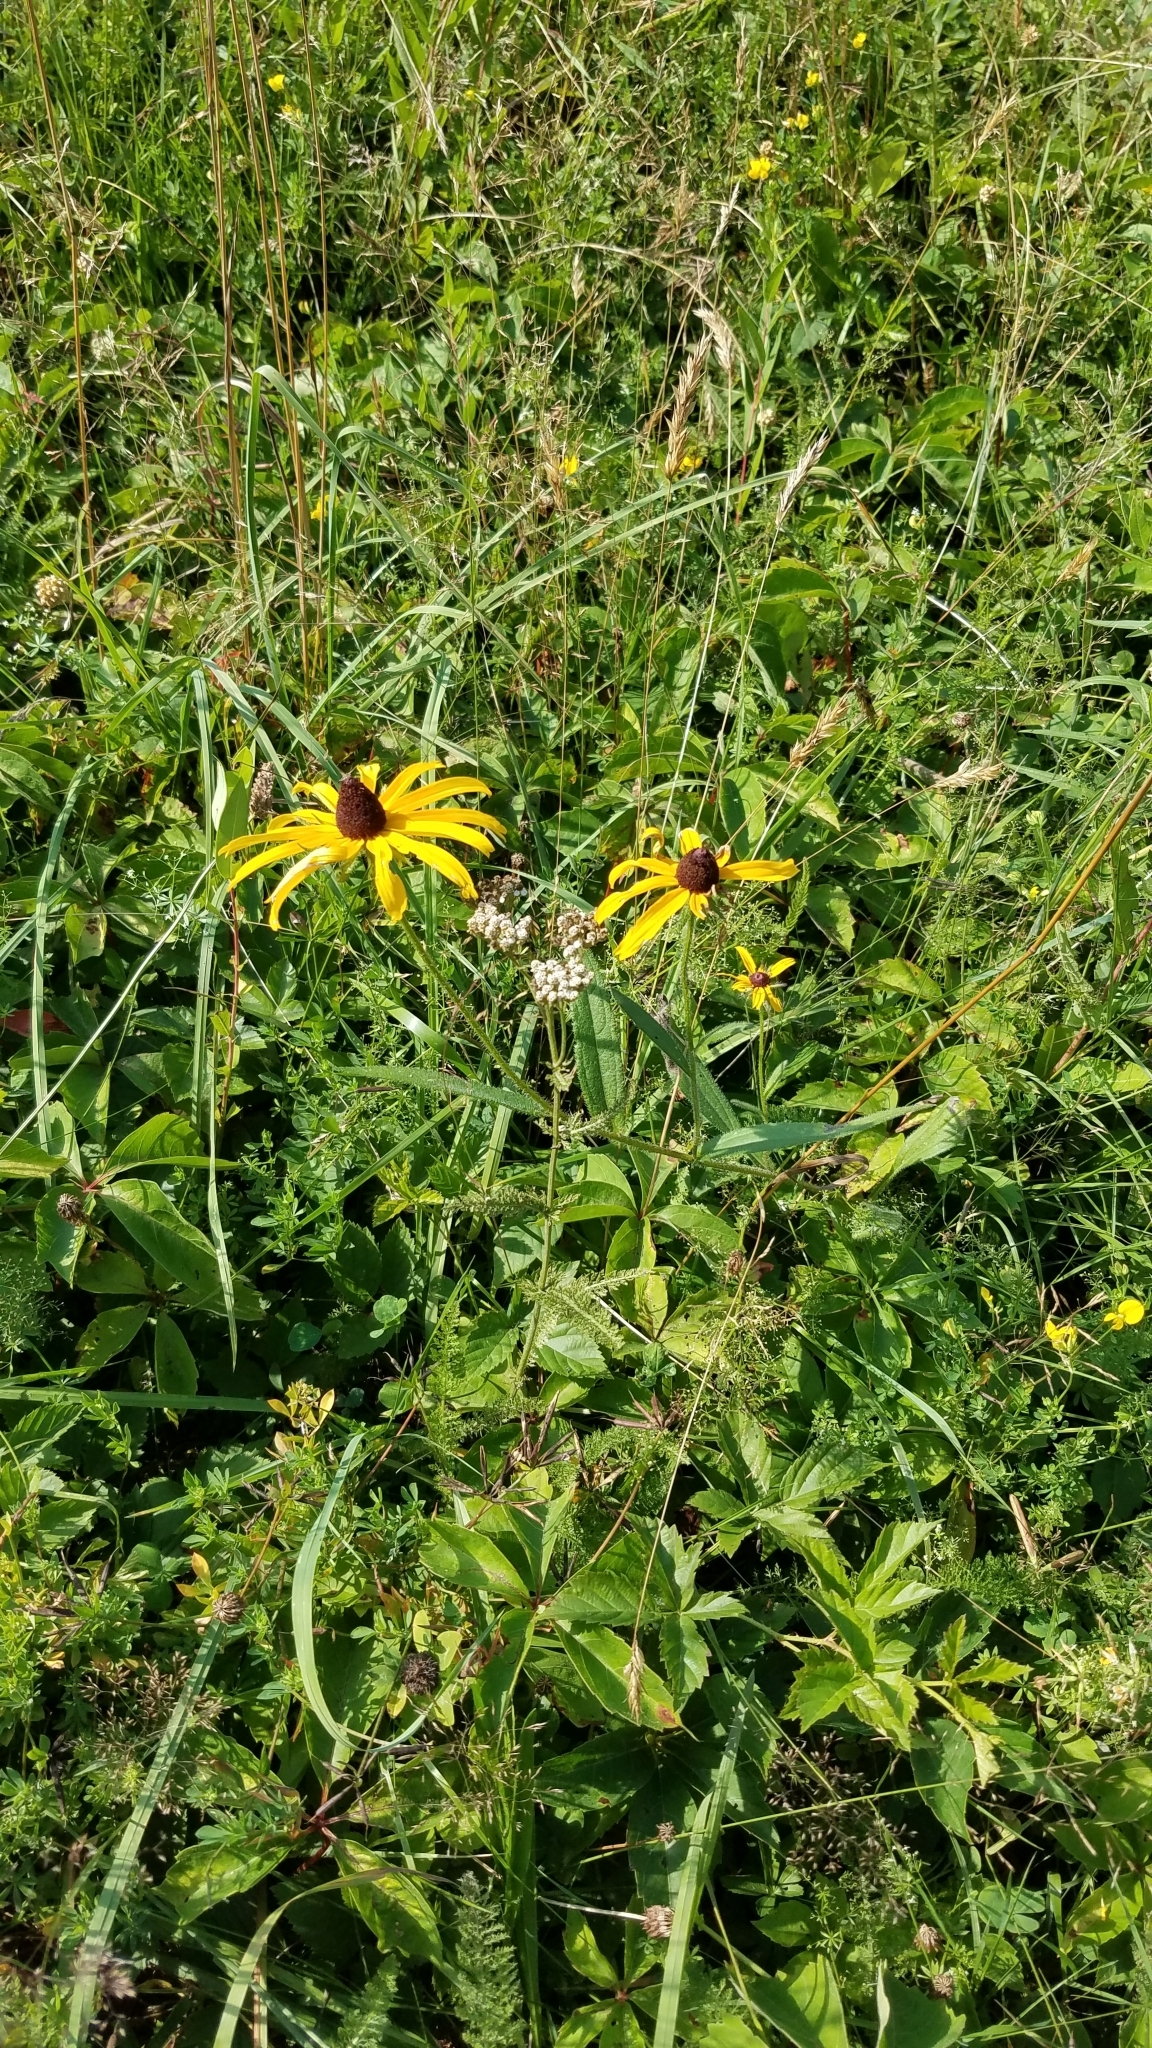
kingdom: Plantae
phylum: Tracheophyta
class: Magnoliopsida
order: Asterales
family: Asteraceae
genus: Rudbeckia
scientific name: Rudbeckia hirta
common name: Black-eyed-susan
